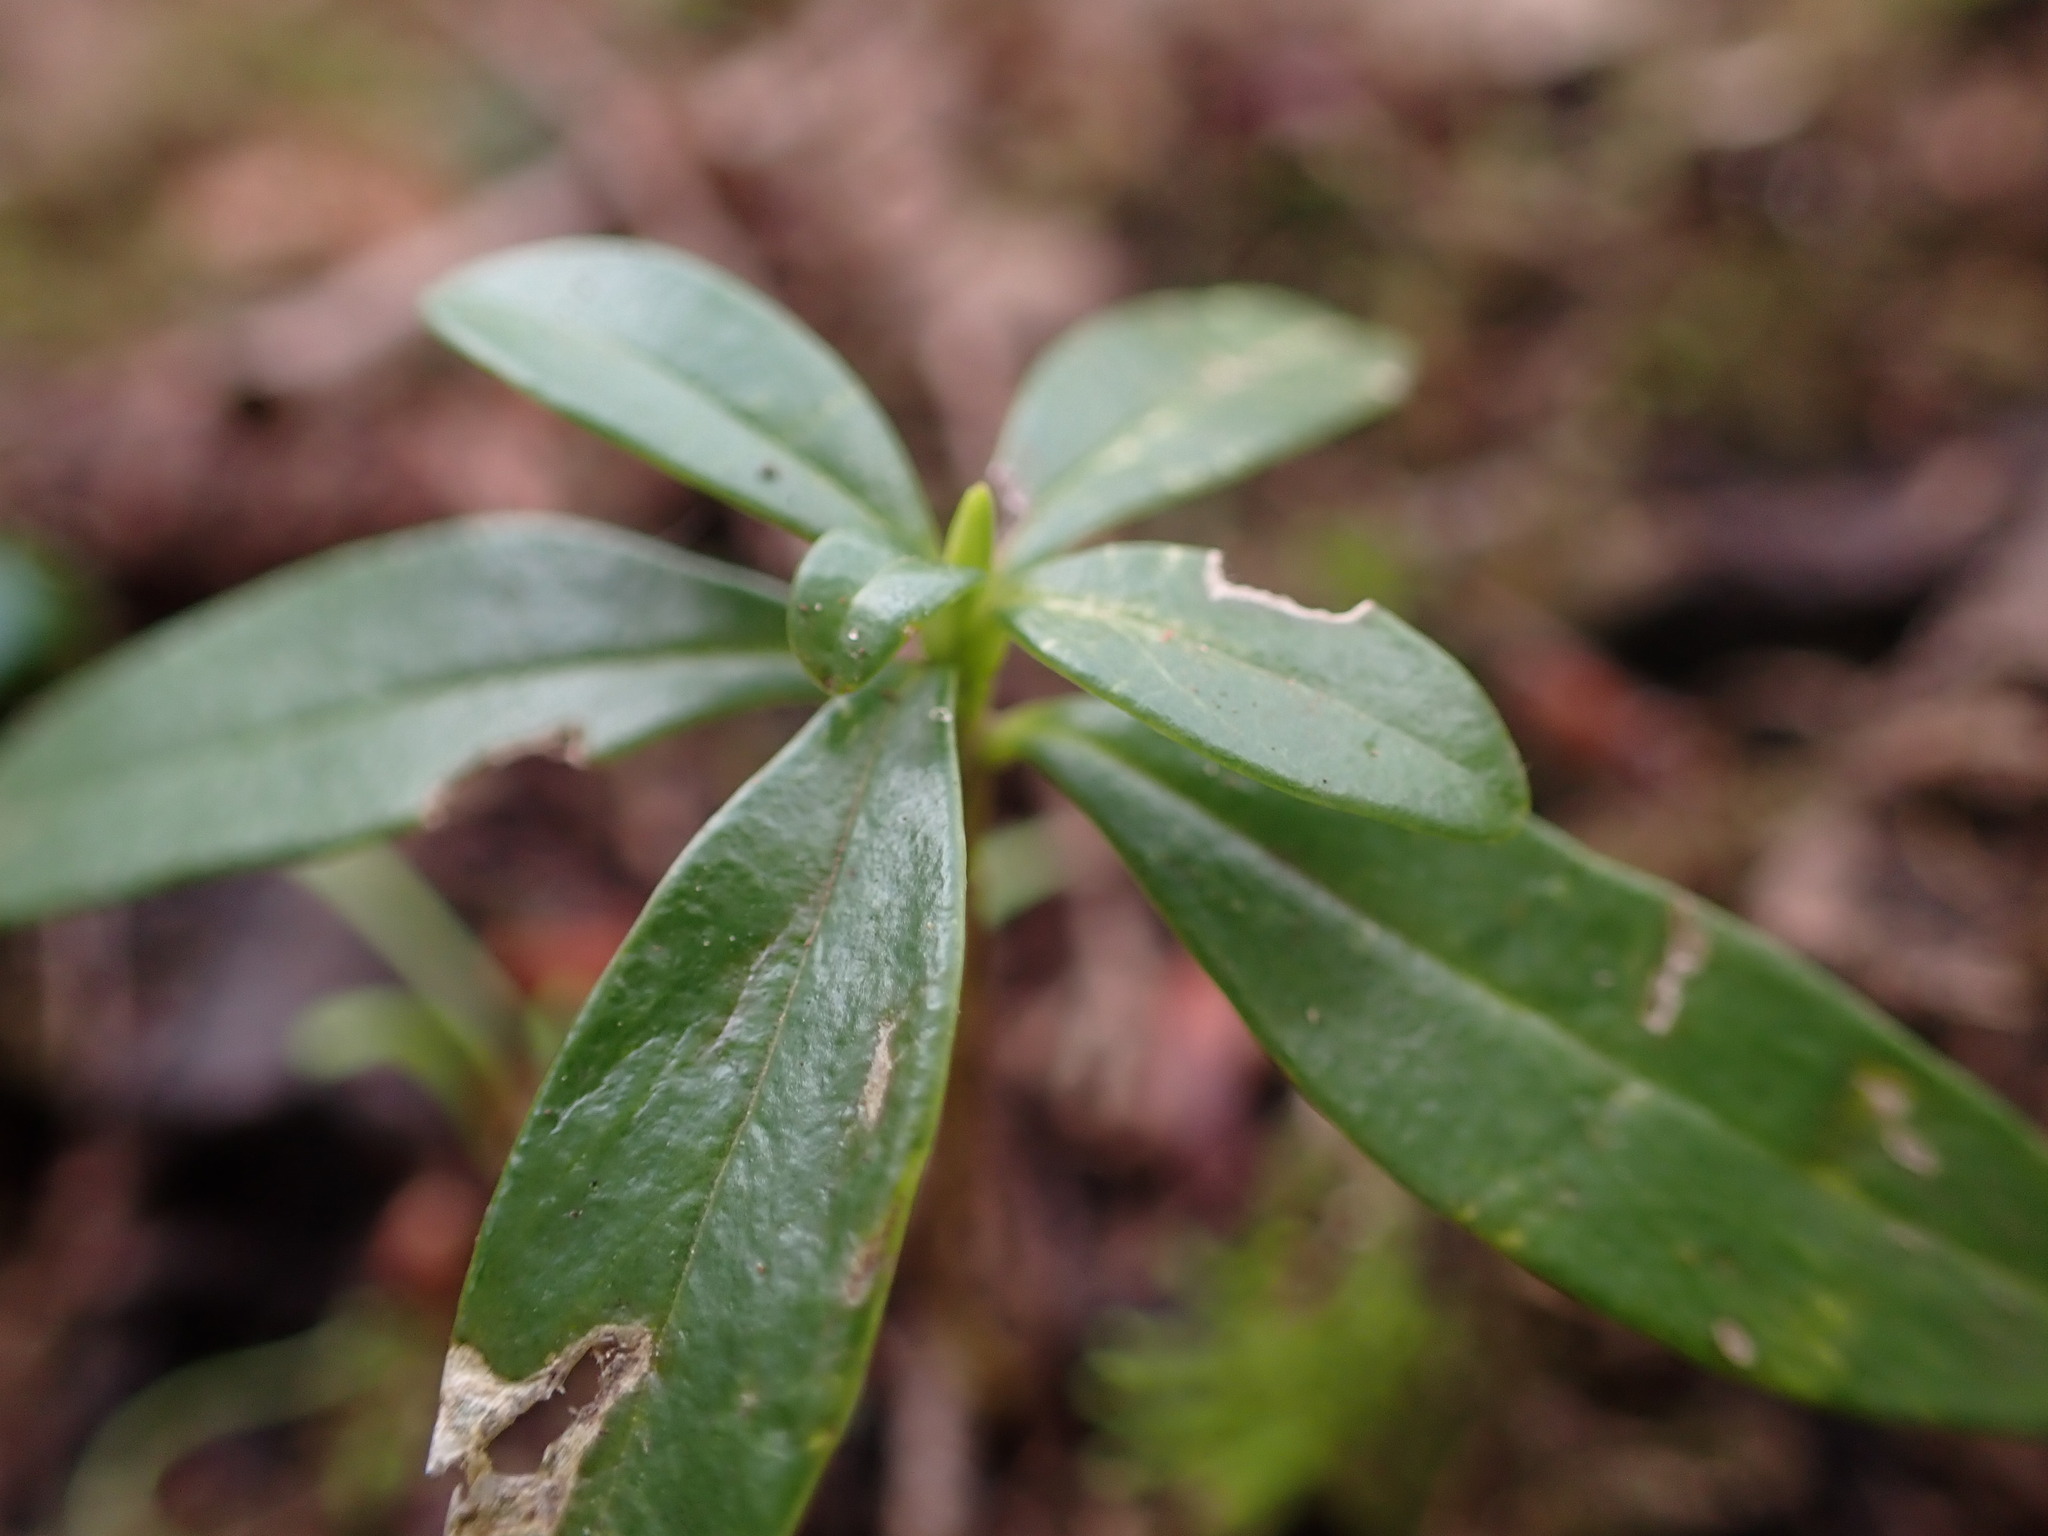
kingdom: Plantae
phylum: Tracheophyta
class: Magnoliopsida
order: Malvales
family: Thymelaeaceae
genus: Daphne
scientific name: Daphne laureola
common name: Spurge-laurel
